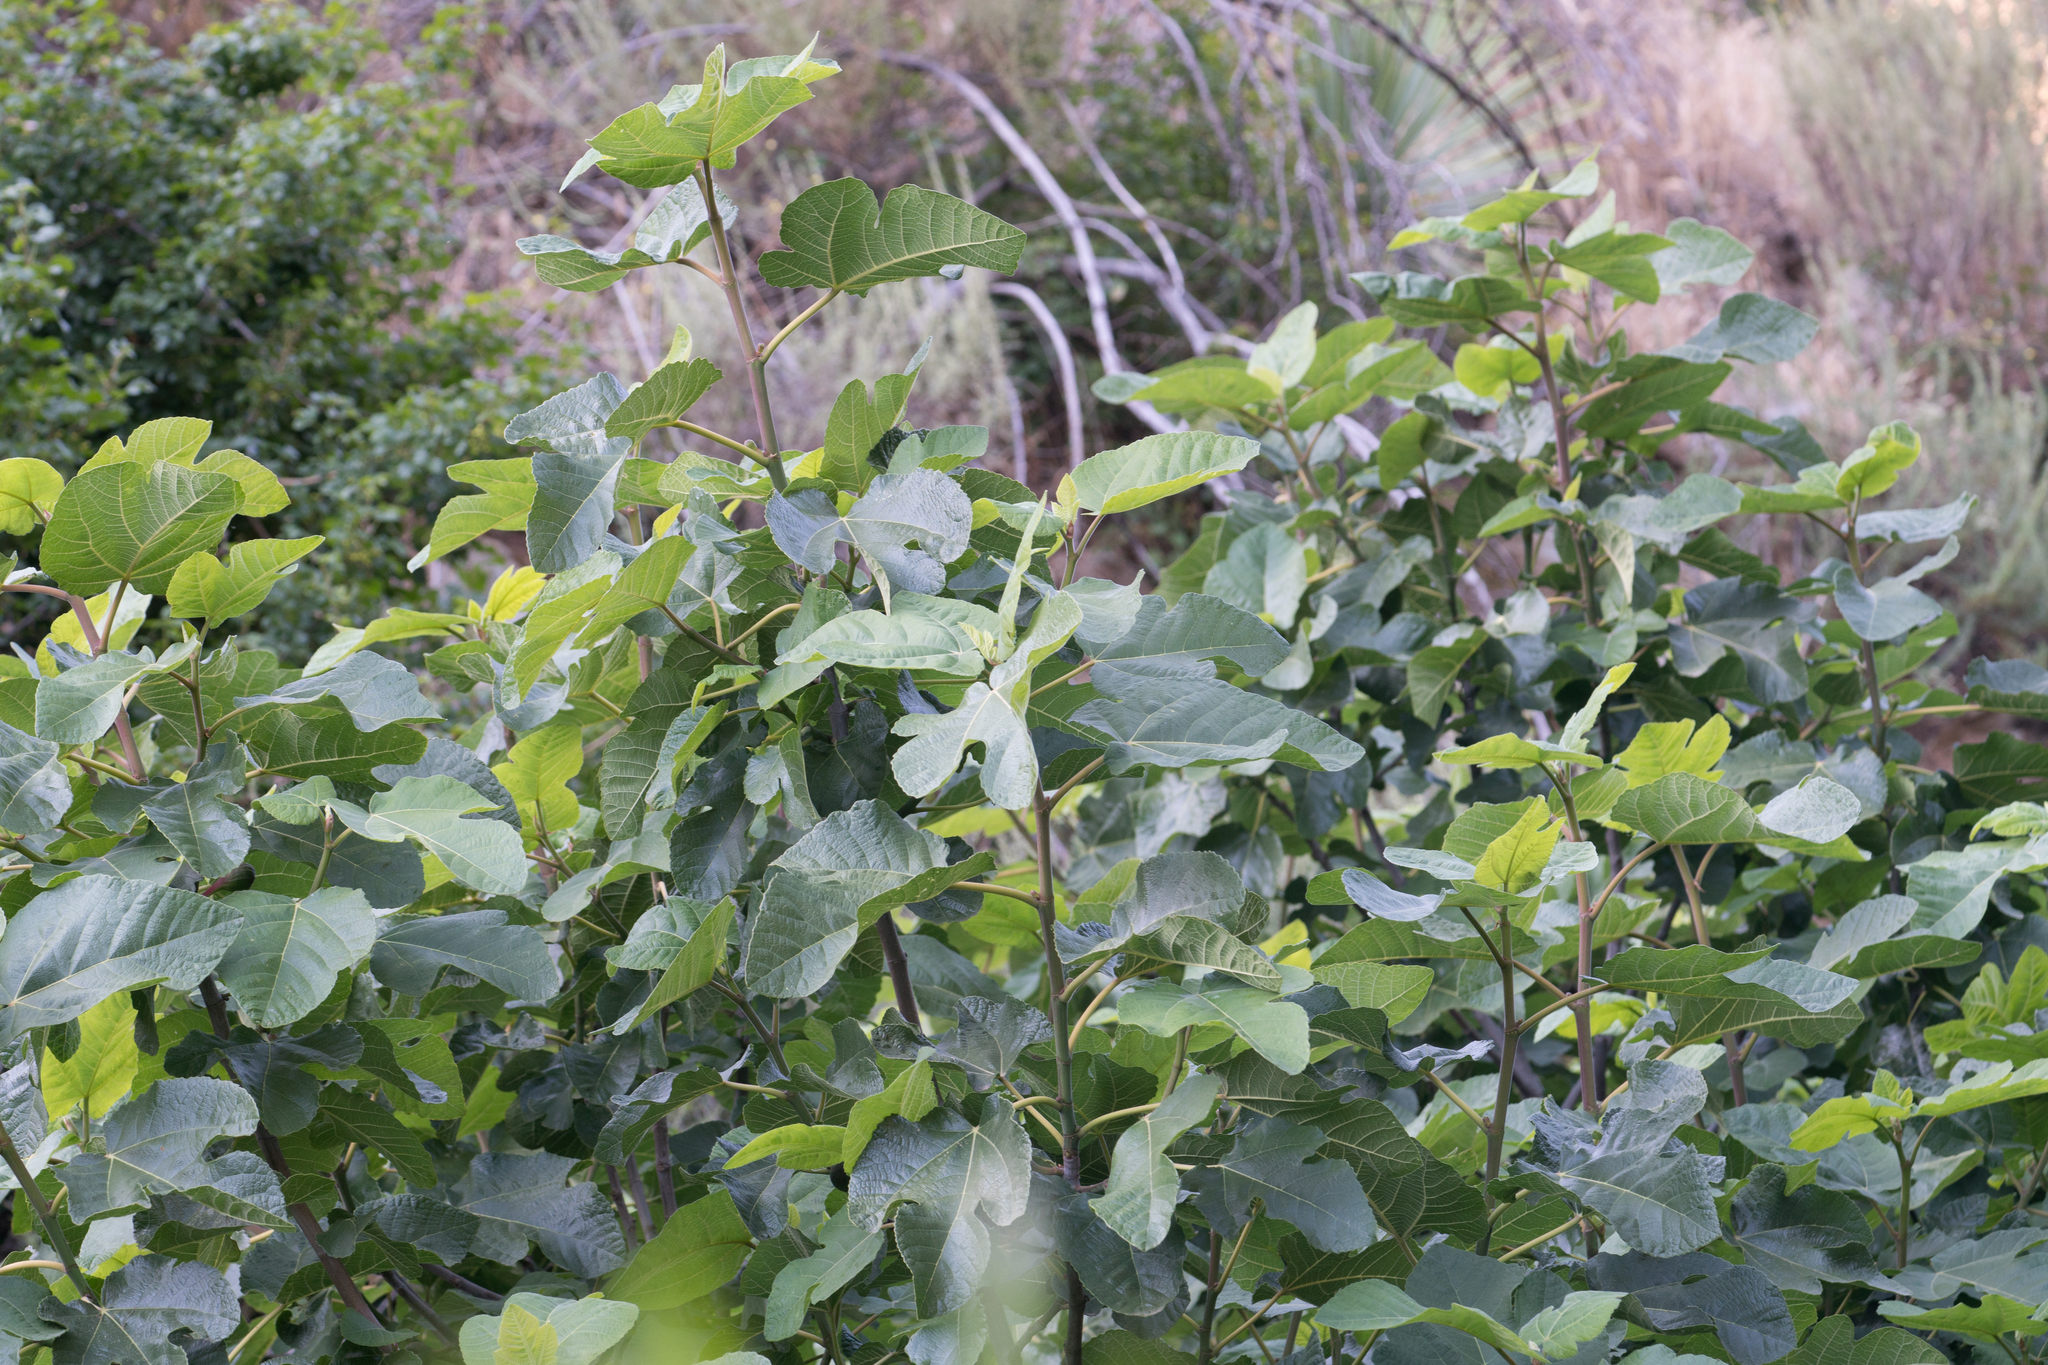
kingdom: Plantae
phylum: Tracheophyta
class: Magnoliopsida
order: Rosales
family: Moraceae
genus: Ficus
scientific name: Ficus carica
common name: Fig
